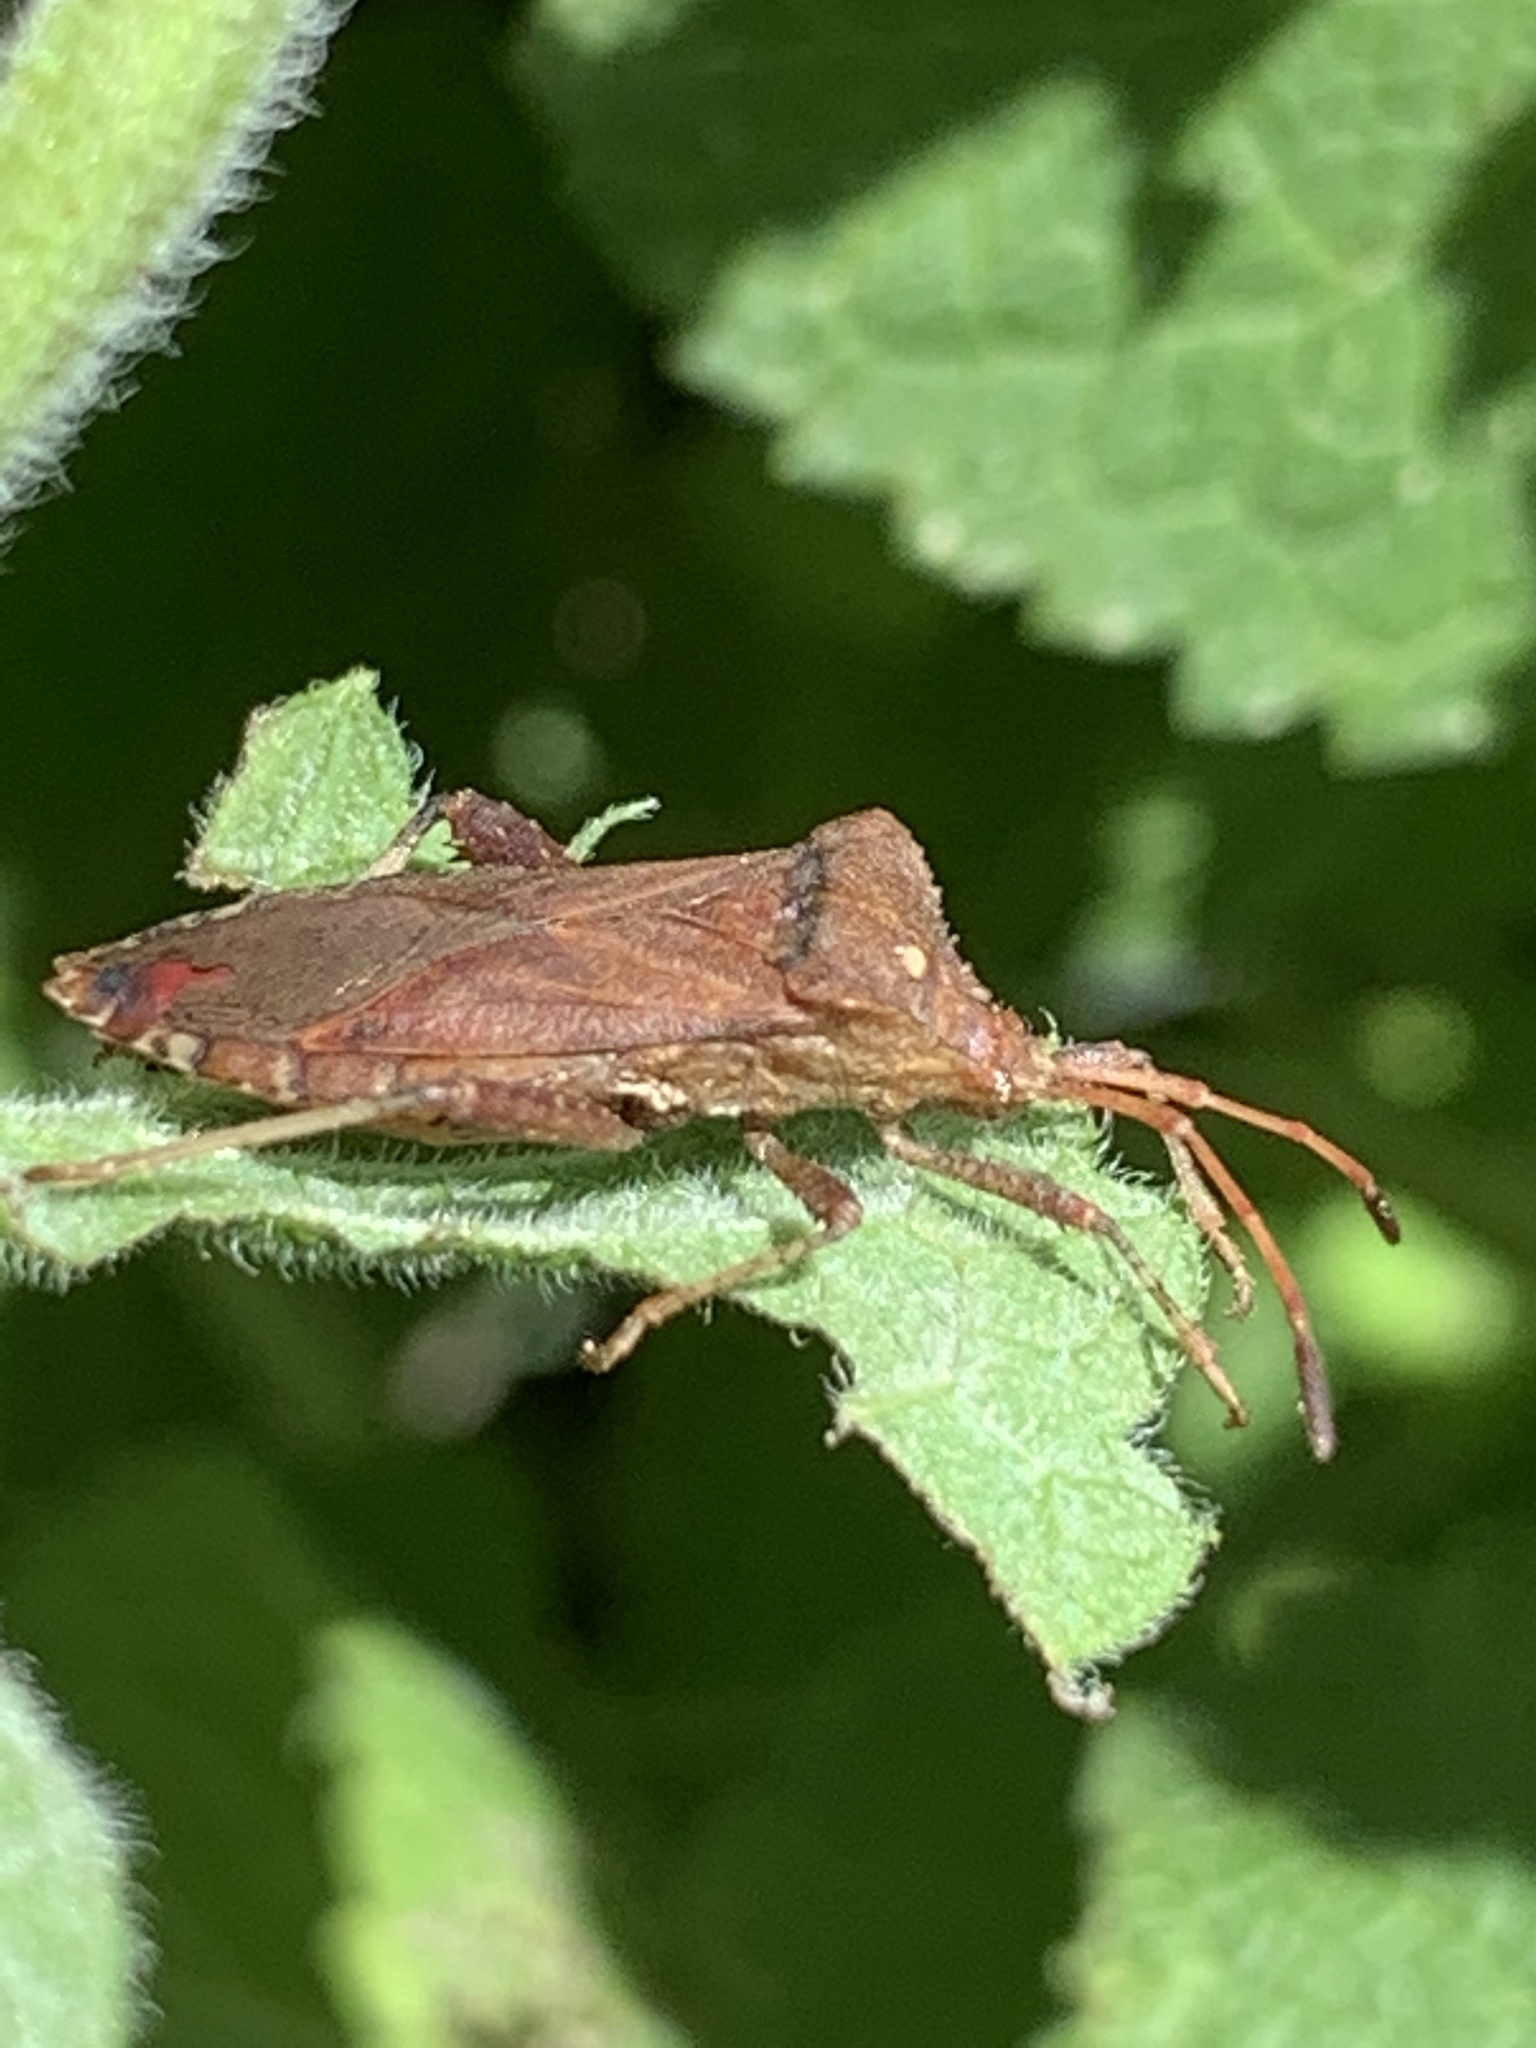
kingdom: Animalia
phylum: Arthropoda
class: Insecta
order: Hemiptera
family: Coreidae
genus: Euthochtha
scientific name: Euthochtha galeator
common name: Helmeted squash bug
